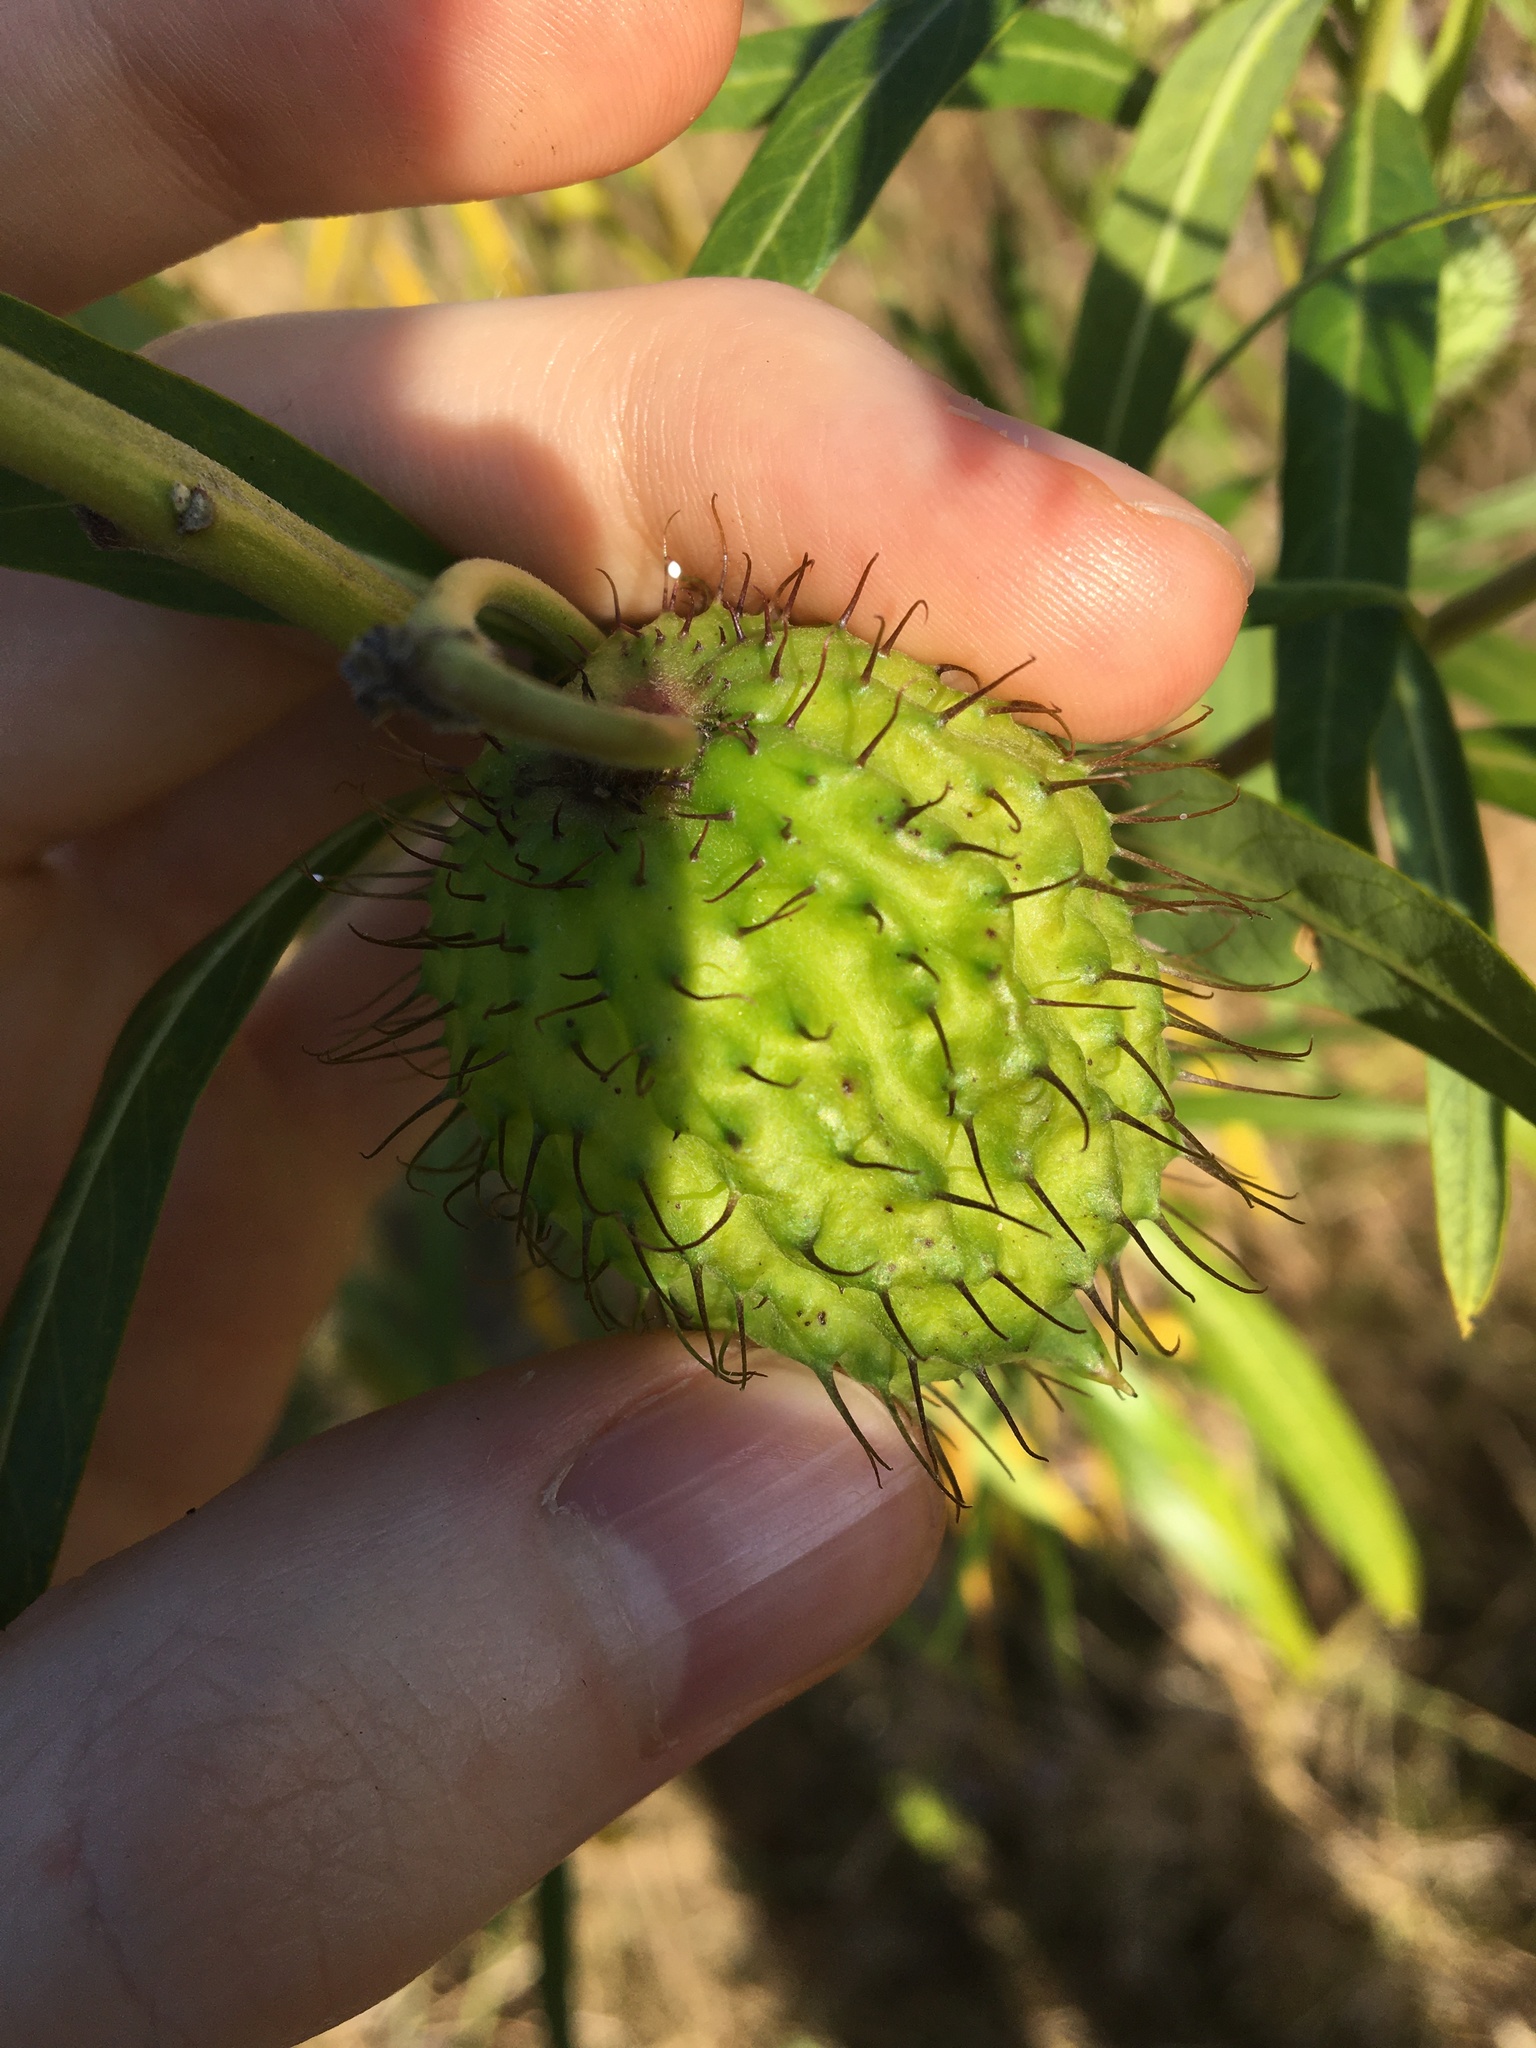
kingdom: Plantae
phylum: Tracheophyta
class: Magnoliopsida
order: Gentianales
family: Apocynaceae
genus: Gomphocarpus
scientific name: Gomphocarpus fruticosus
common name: Milkweed
